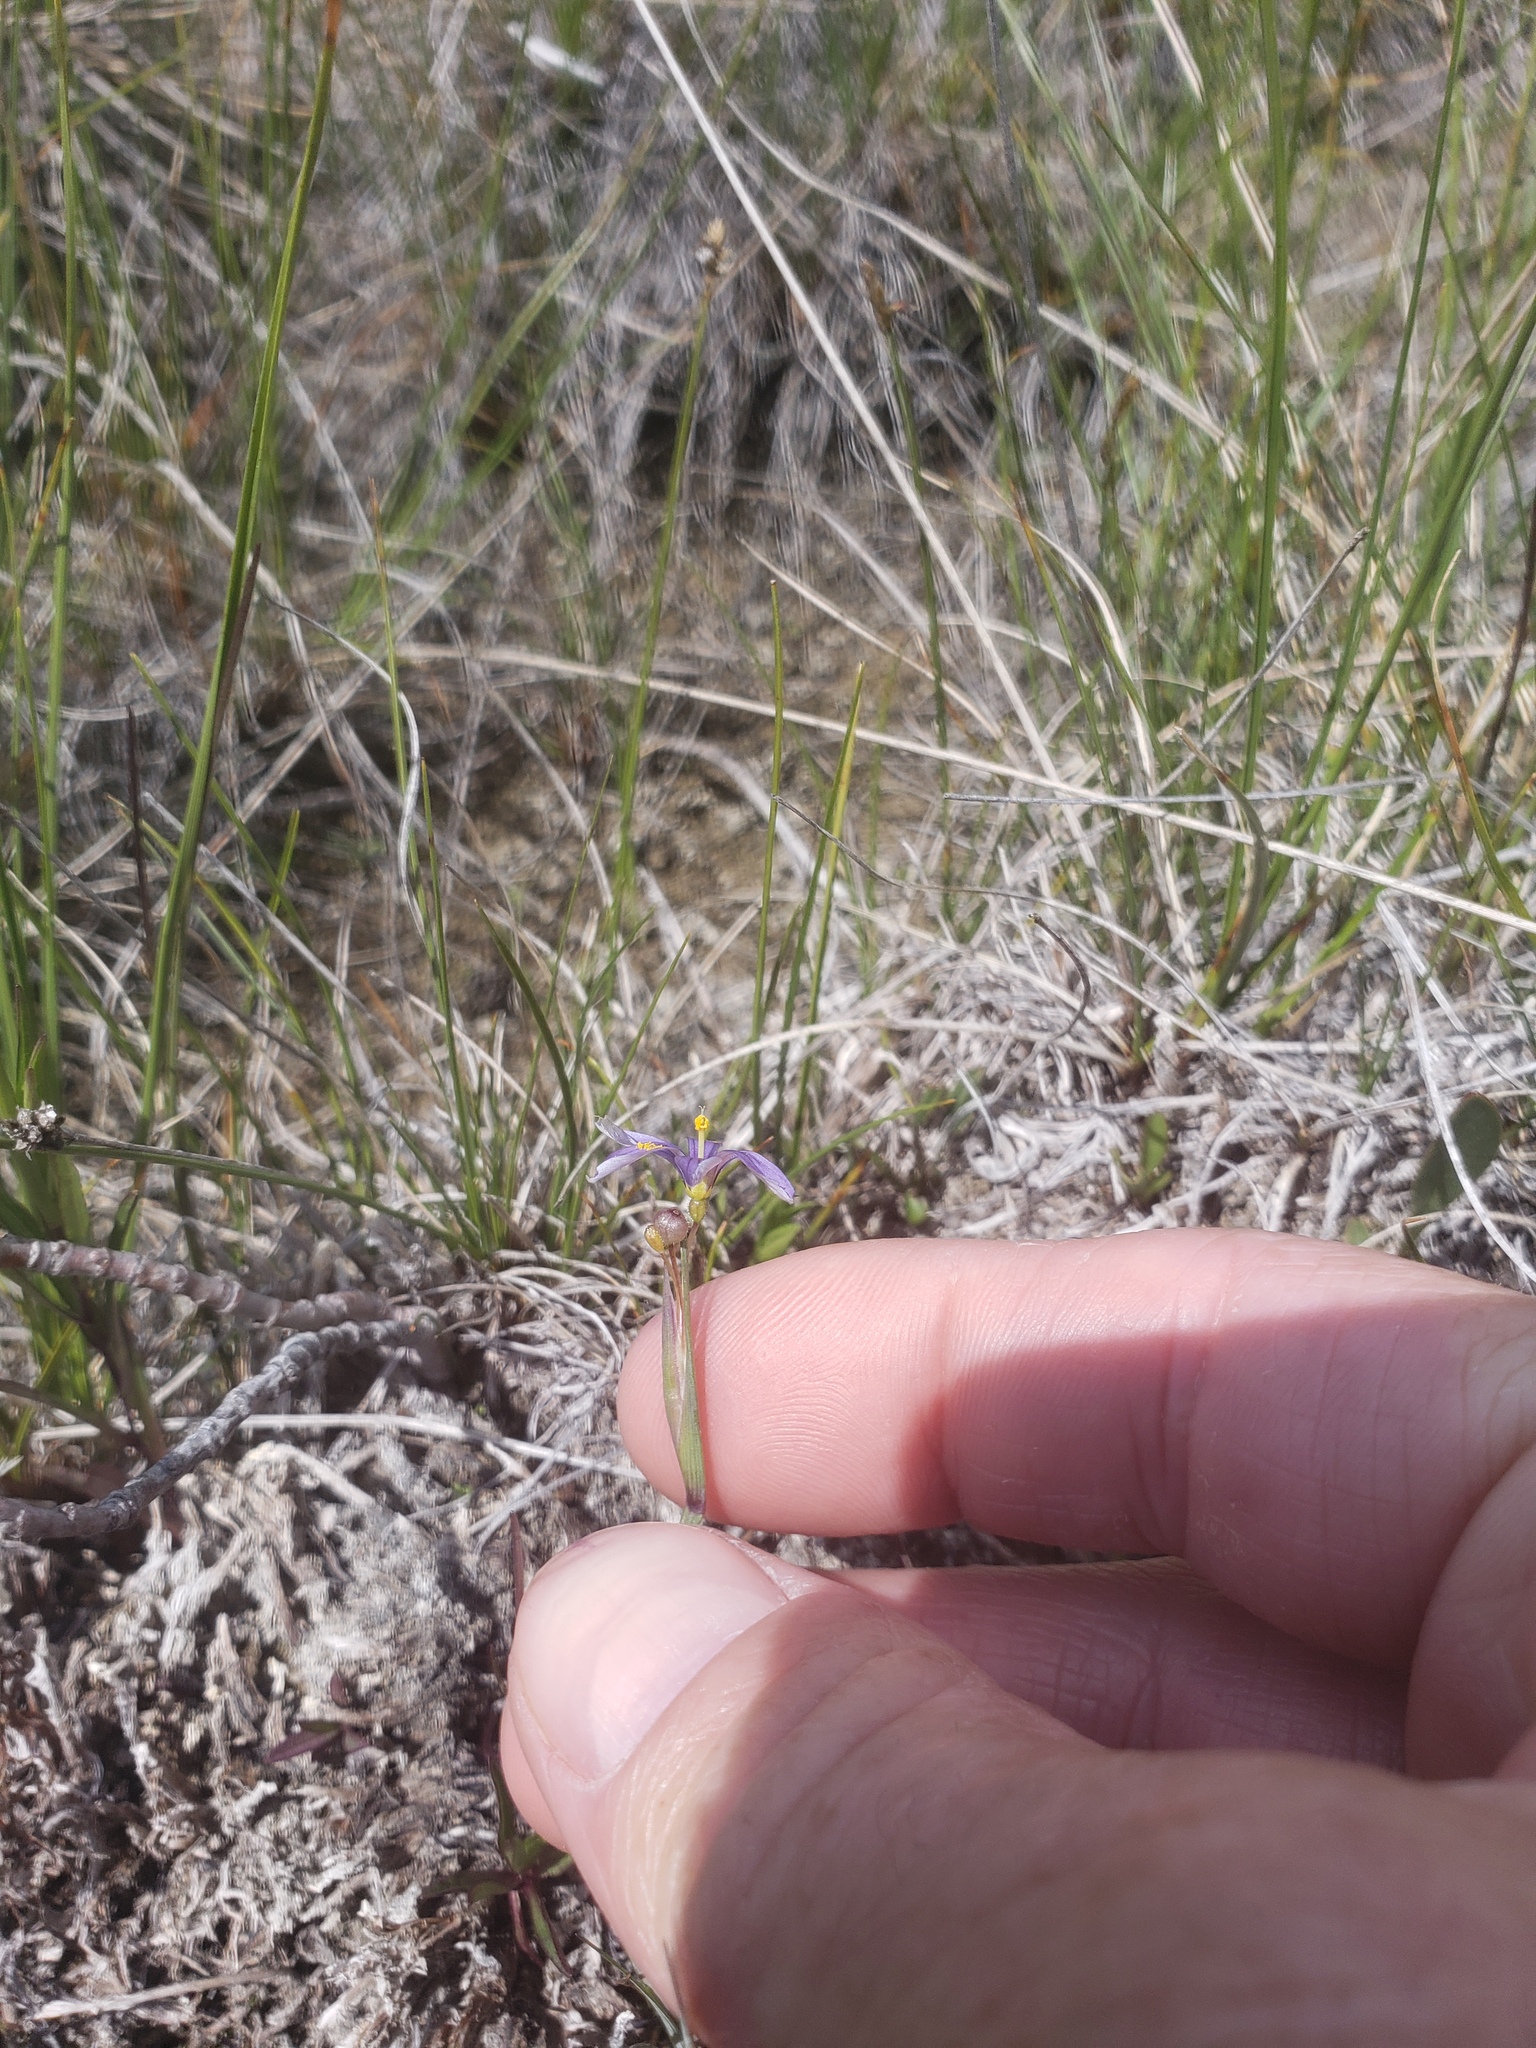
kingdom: Plantae
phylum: Tracheophyta
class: Liliopsida
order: Asparagales
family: Iridaceae
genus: Sisyrinchium
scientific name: Sisyrinchium montanum
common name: American blue-eyed-grass
